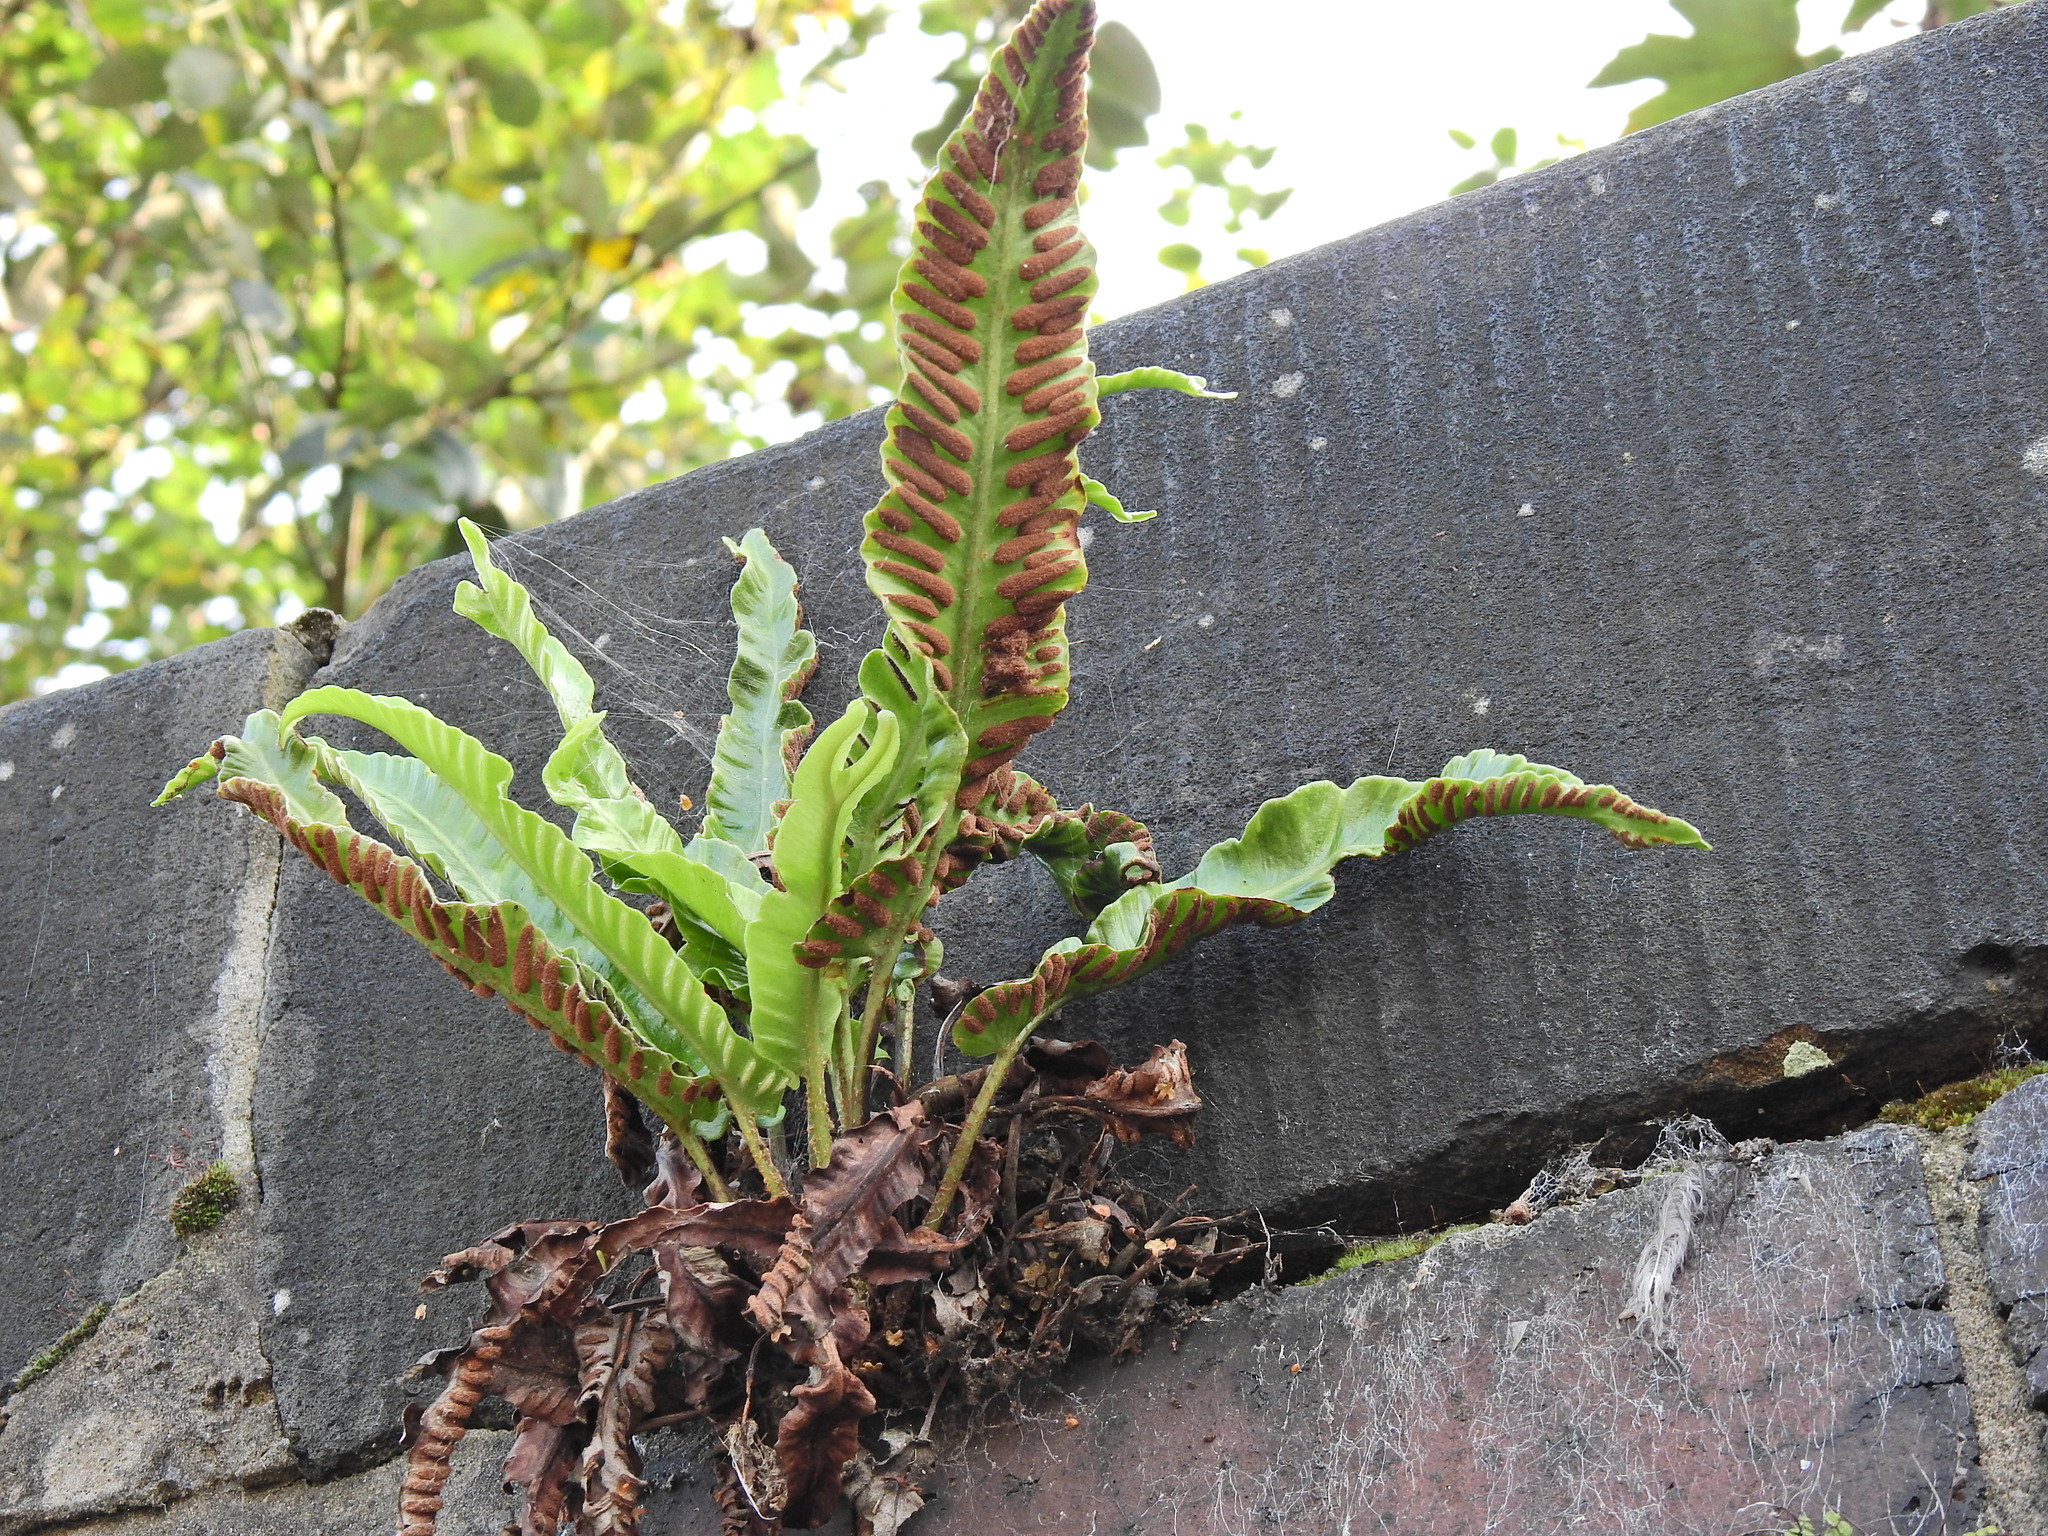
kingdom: Plantae
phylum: Tracheophyta
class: Polypodiopsida
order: Polypodiales
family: Aspleniaceae
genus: Asplenium
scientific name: Asplenium scolopendrium
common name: Hart's-tongue fern
